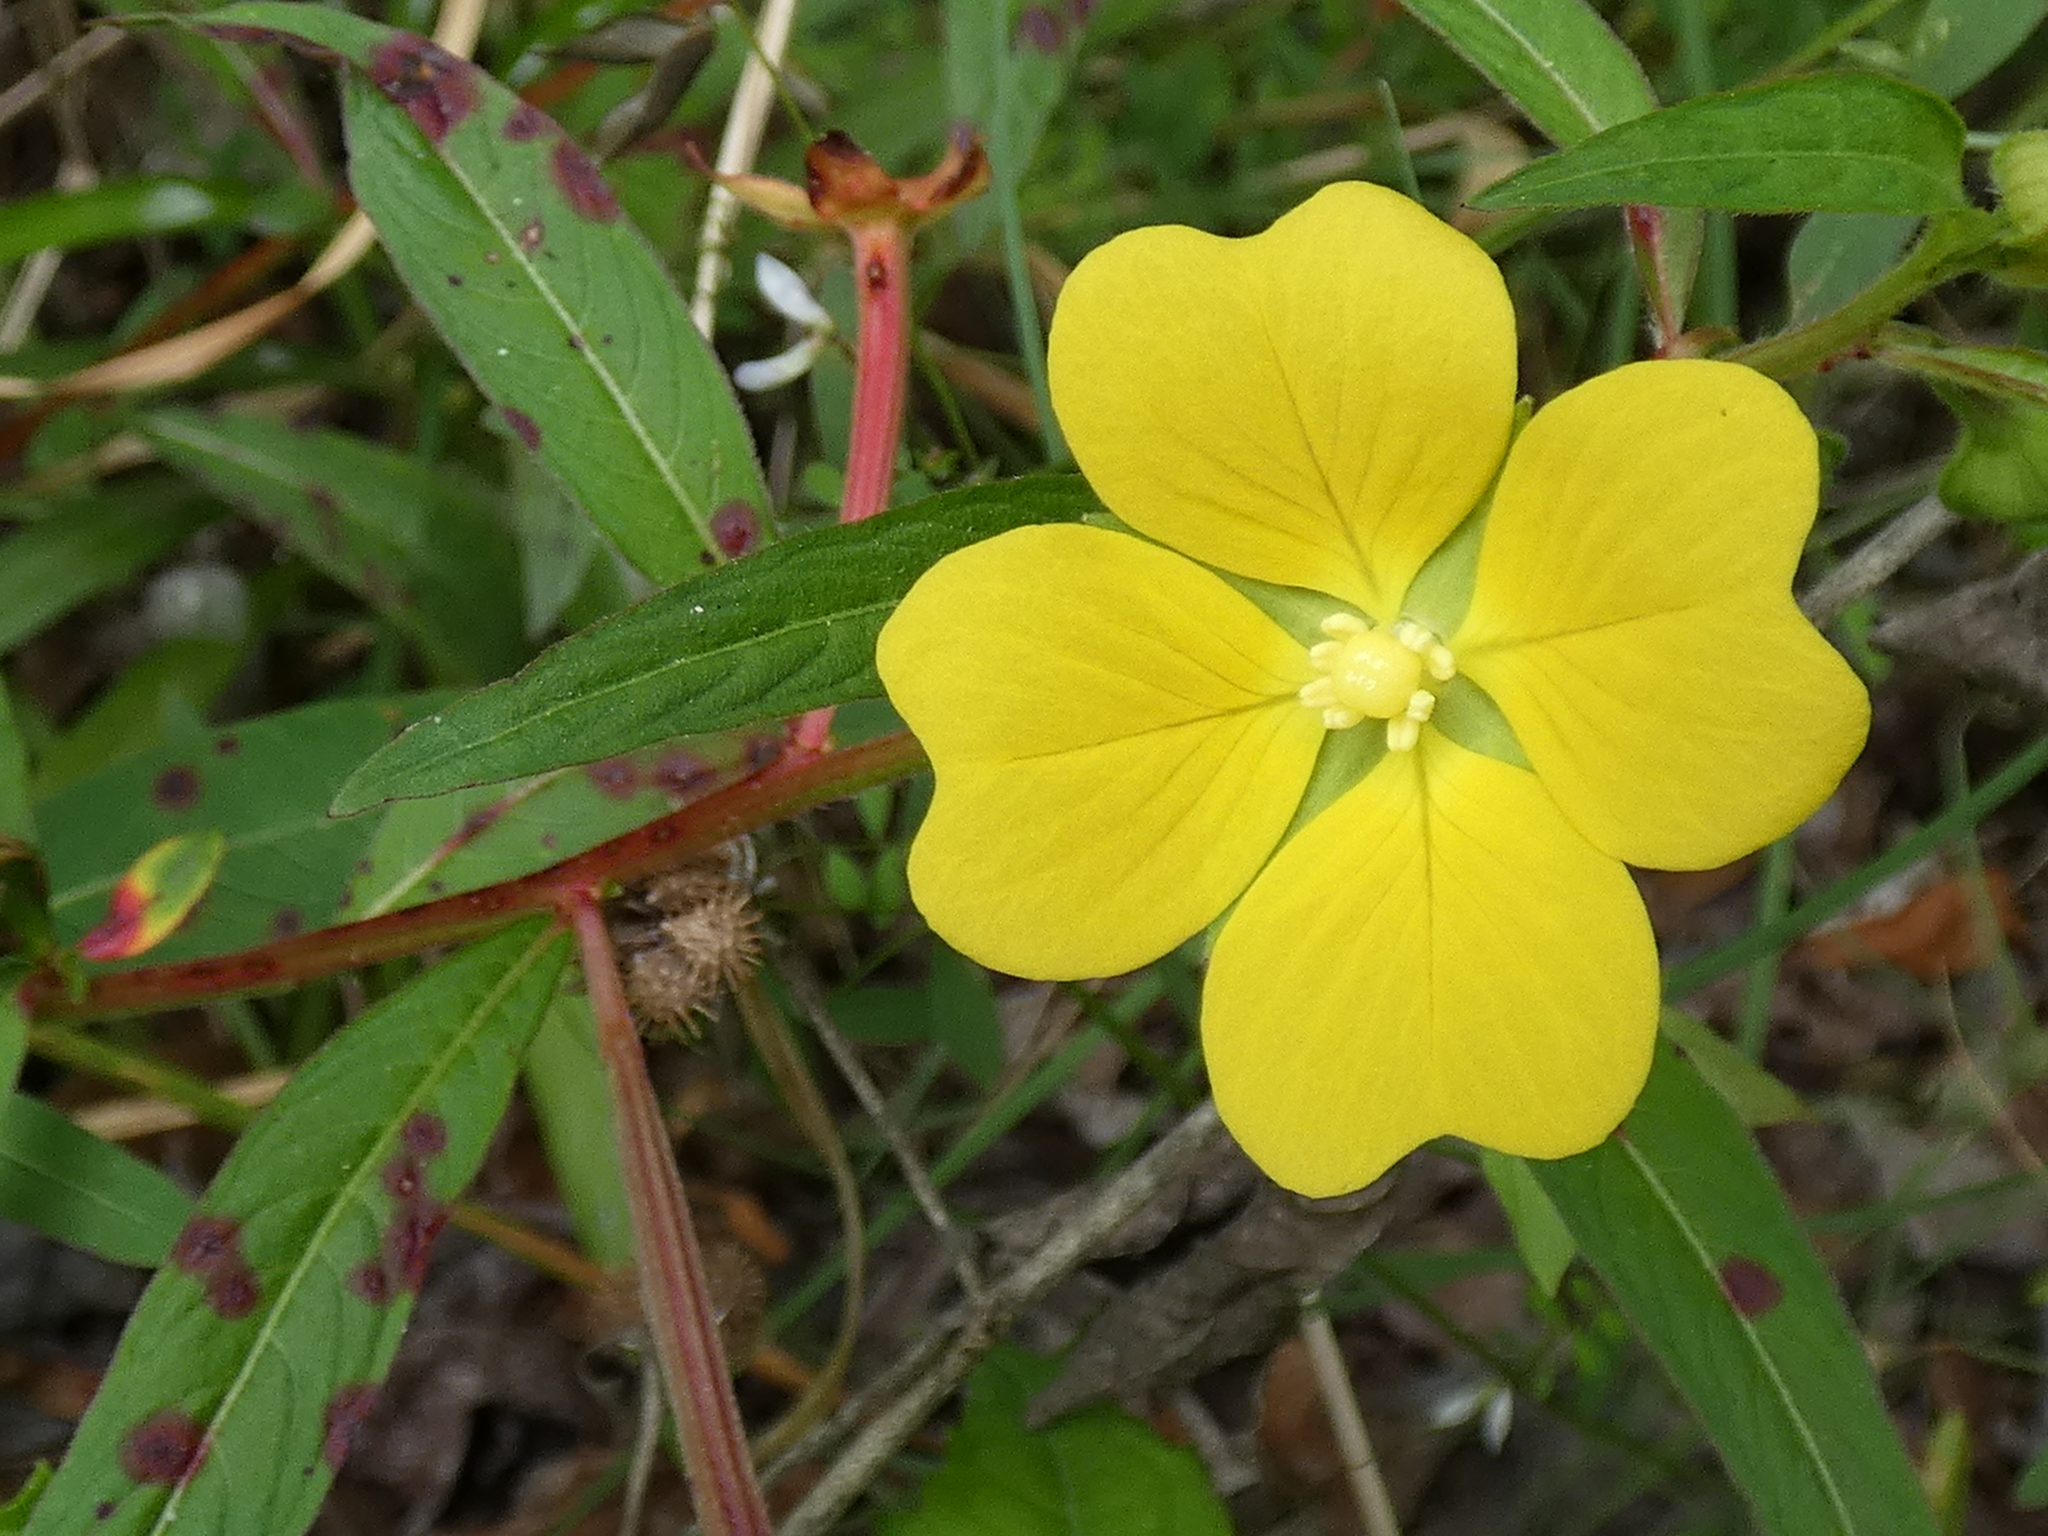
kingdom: Plantae
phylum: Tracheophyta
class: Magnoliopsida
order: Myrtales
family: Onagraceae
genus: Ludwigia
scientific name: Ludwigia octovalvis
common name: Water-primrose
